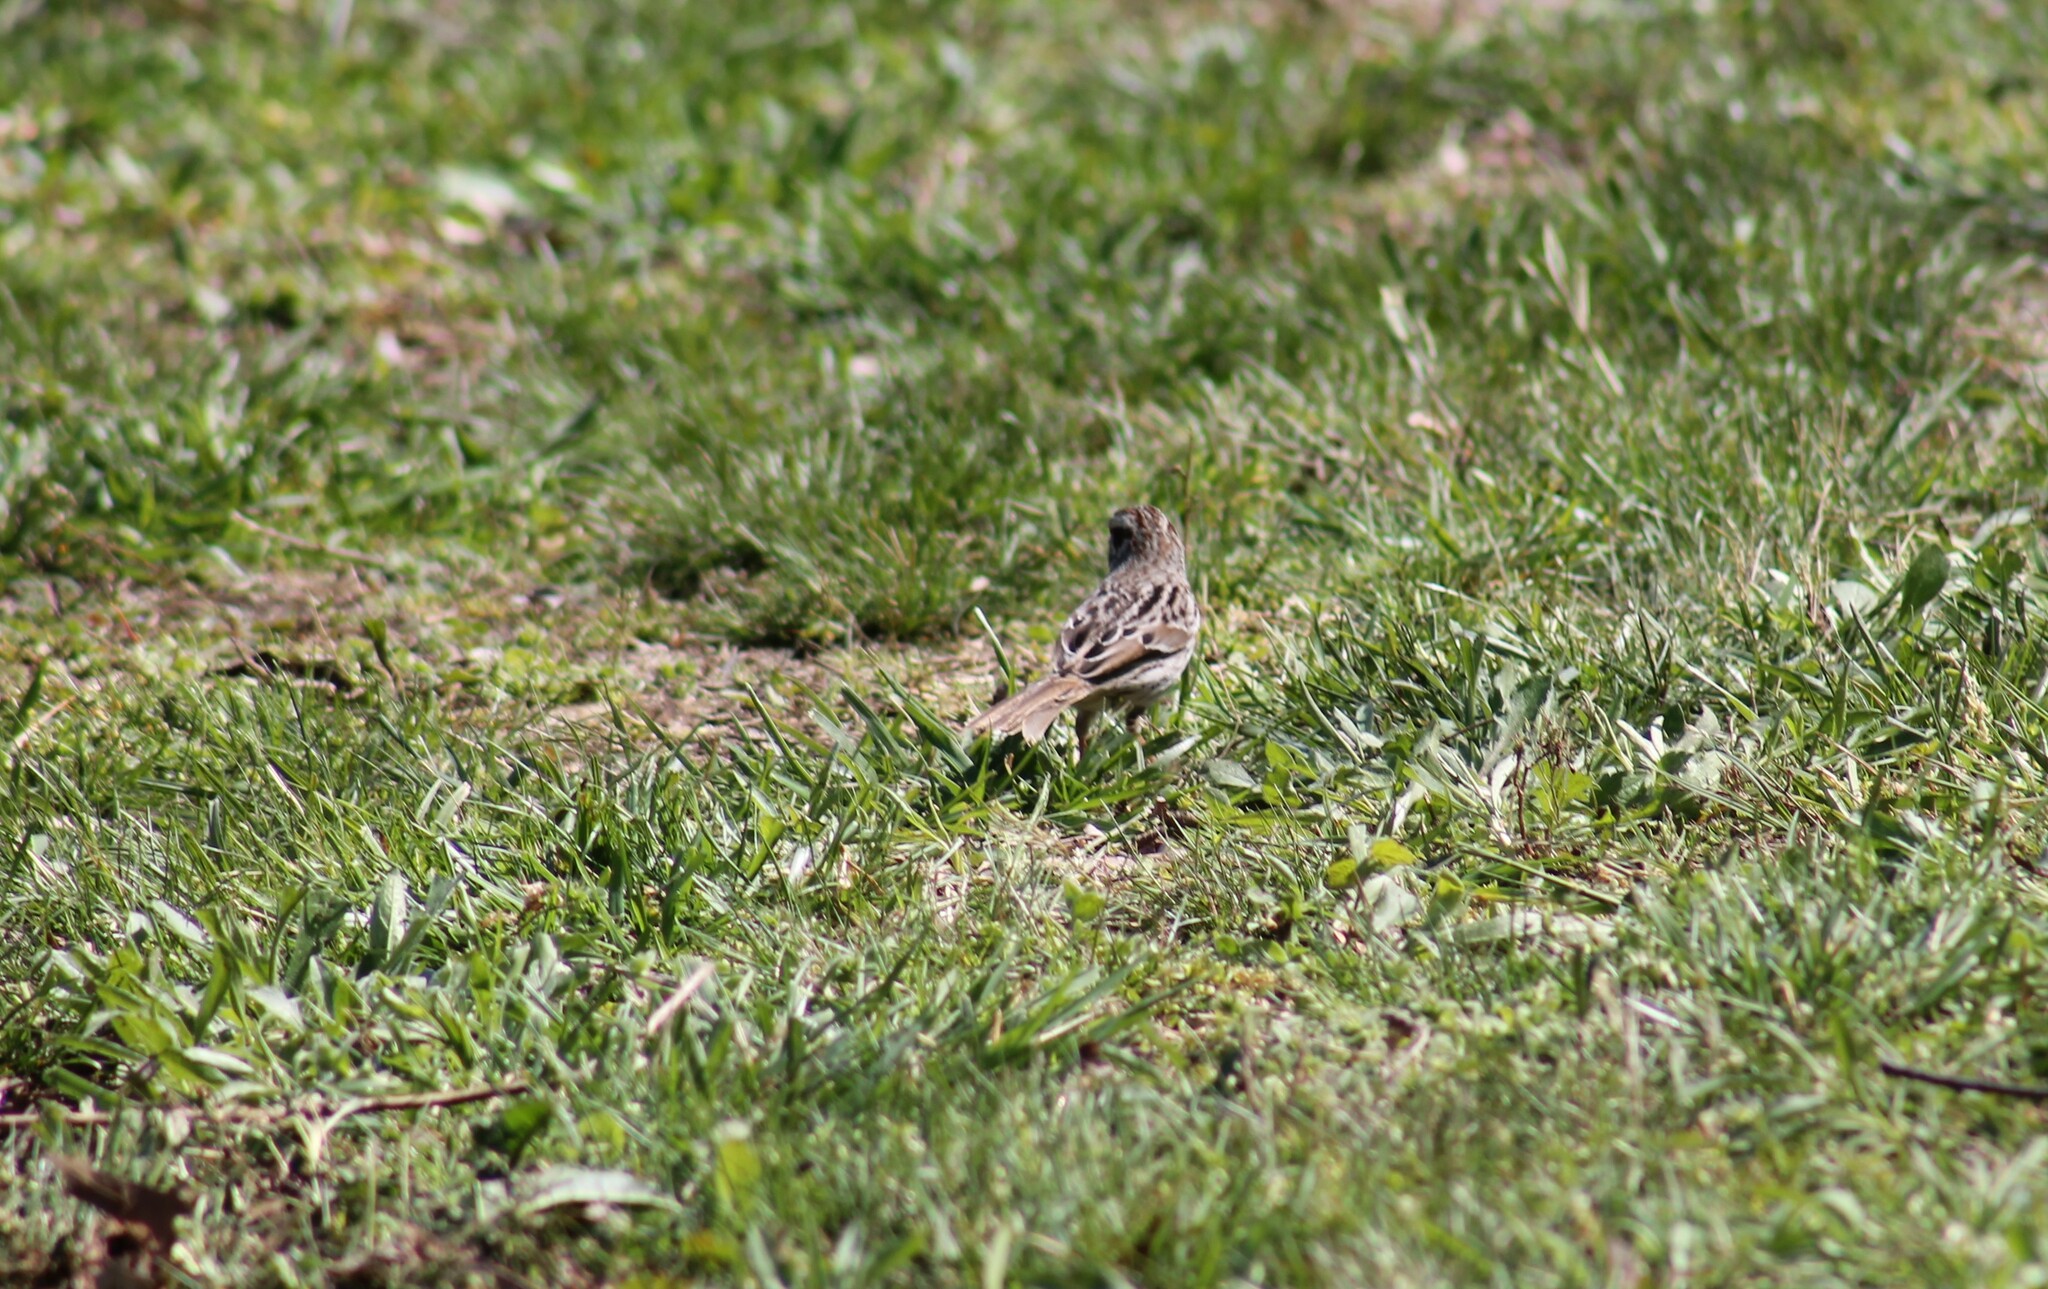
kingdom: Animalia
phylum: Chordata
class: Aves
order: Passeriformes
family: Passerellidae
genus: Melospiza
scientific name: Melospiza melodia
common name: Song sparrow
